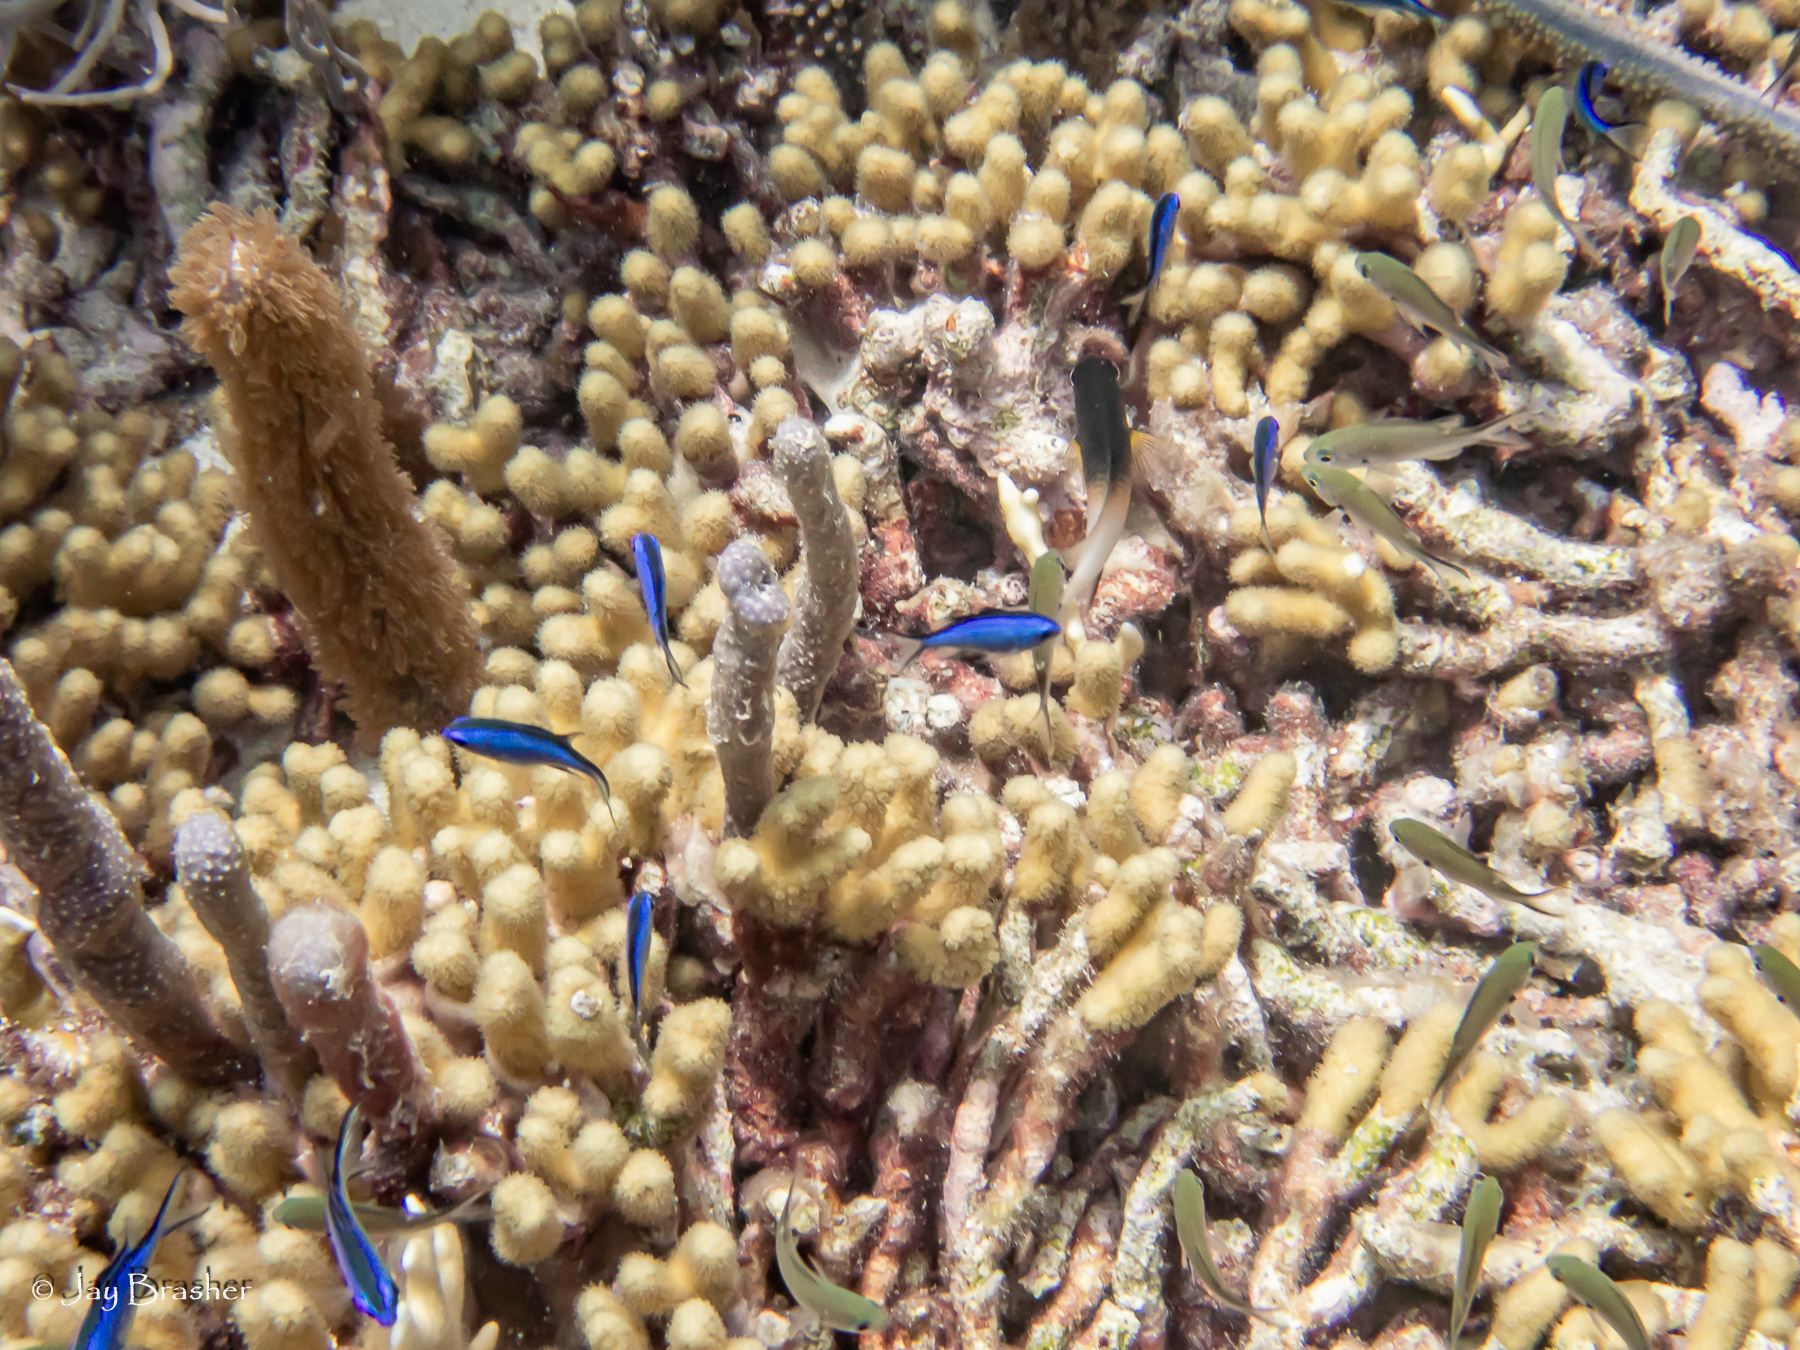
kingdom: Animalia
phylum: Cnidaria
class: Anthozoa
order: Scleractinia
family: Pocilloporidae
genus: Madracis
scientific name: Madracis auretenra
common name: Yellow pencil coral
